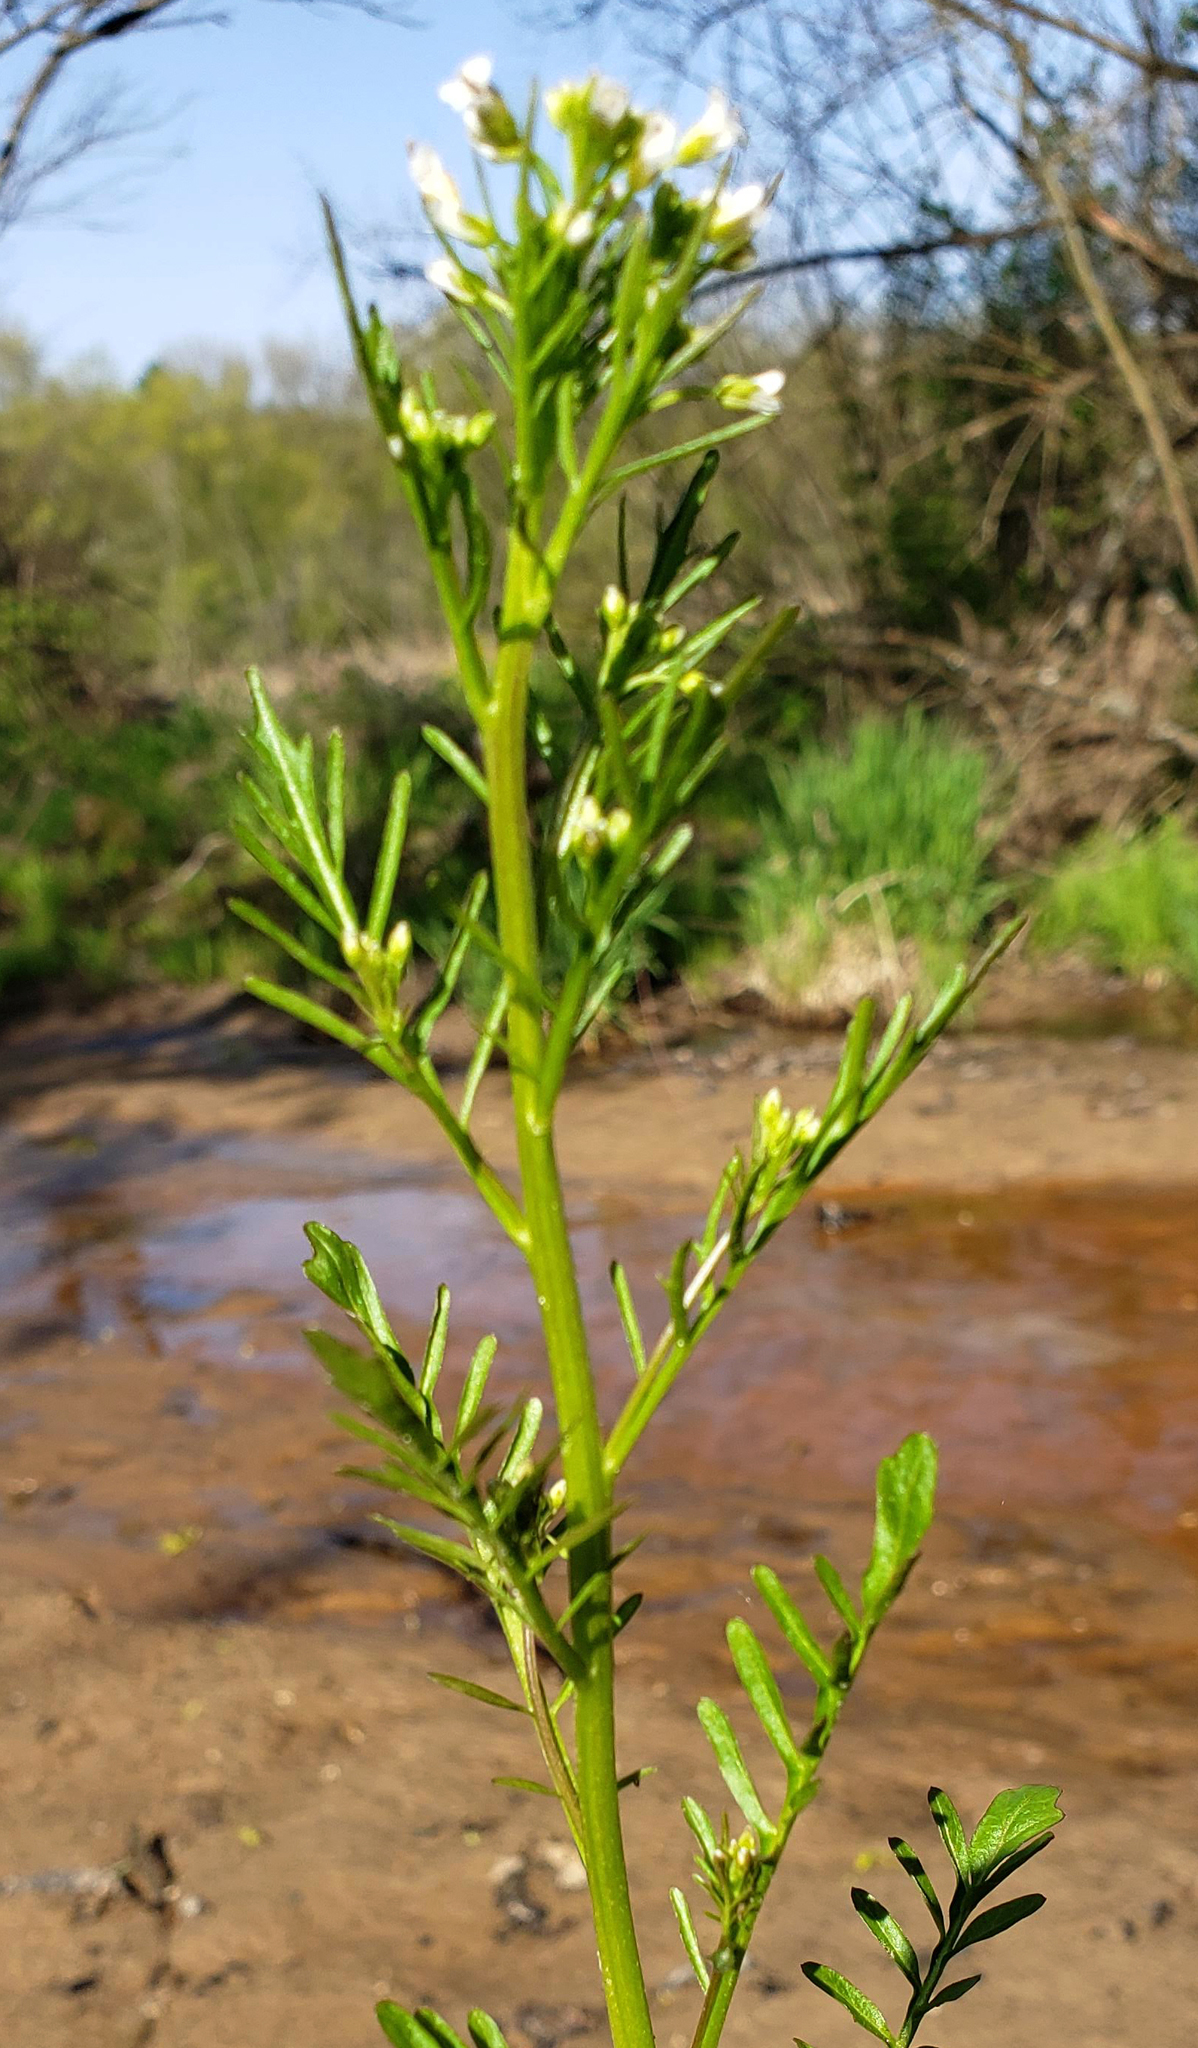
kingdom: Plantae
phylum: Tracheophyta
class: Magnoliopsida
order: Brassicales
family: Brassicaceae
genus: Cardamine
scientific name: Cardamine pensylvanica
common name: Pennsylvania bittercress
